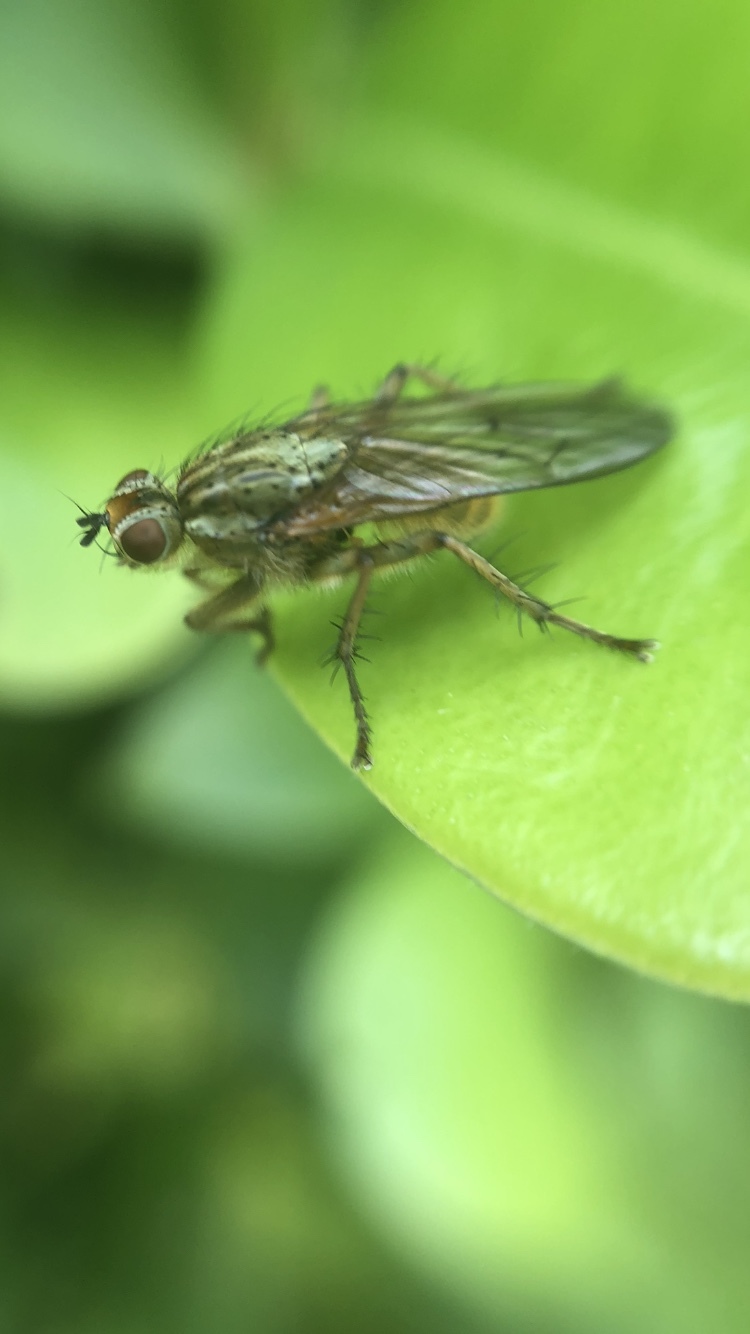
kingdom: Animalia
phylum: Arthropoda
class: Insecta
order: Diptera
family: Scathophagidae
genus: Scathophaga
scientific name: Scathophaga stercoraria
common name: Yellow dung fly
